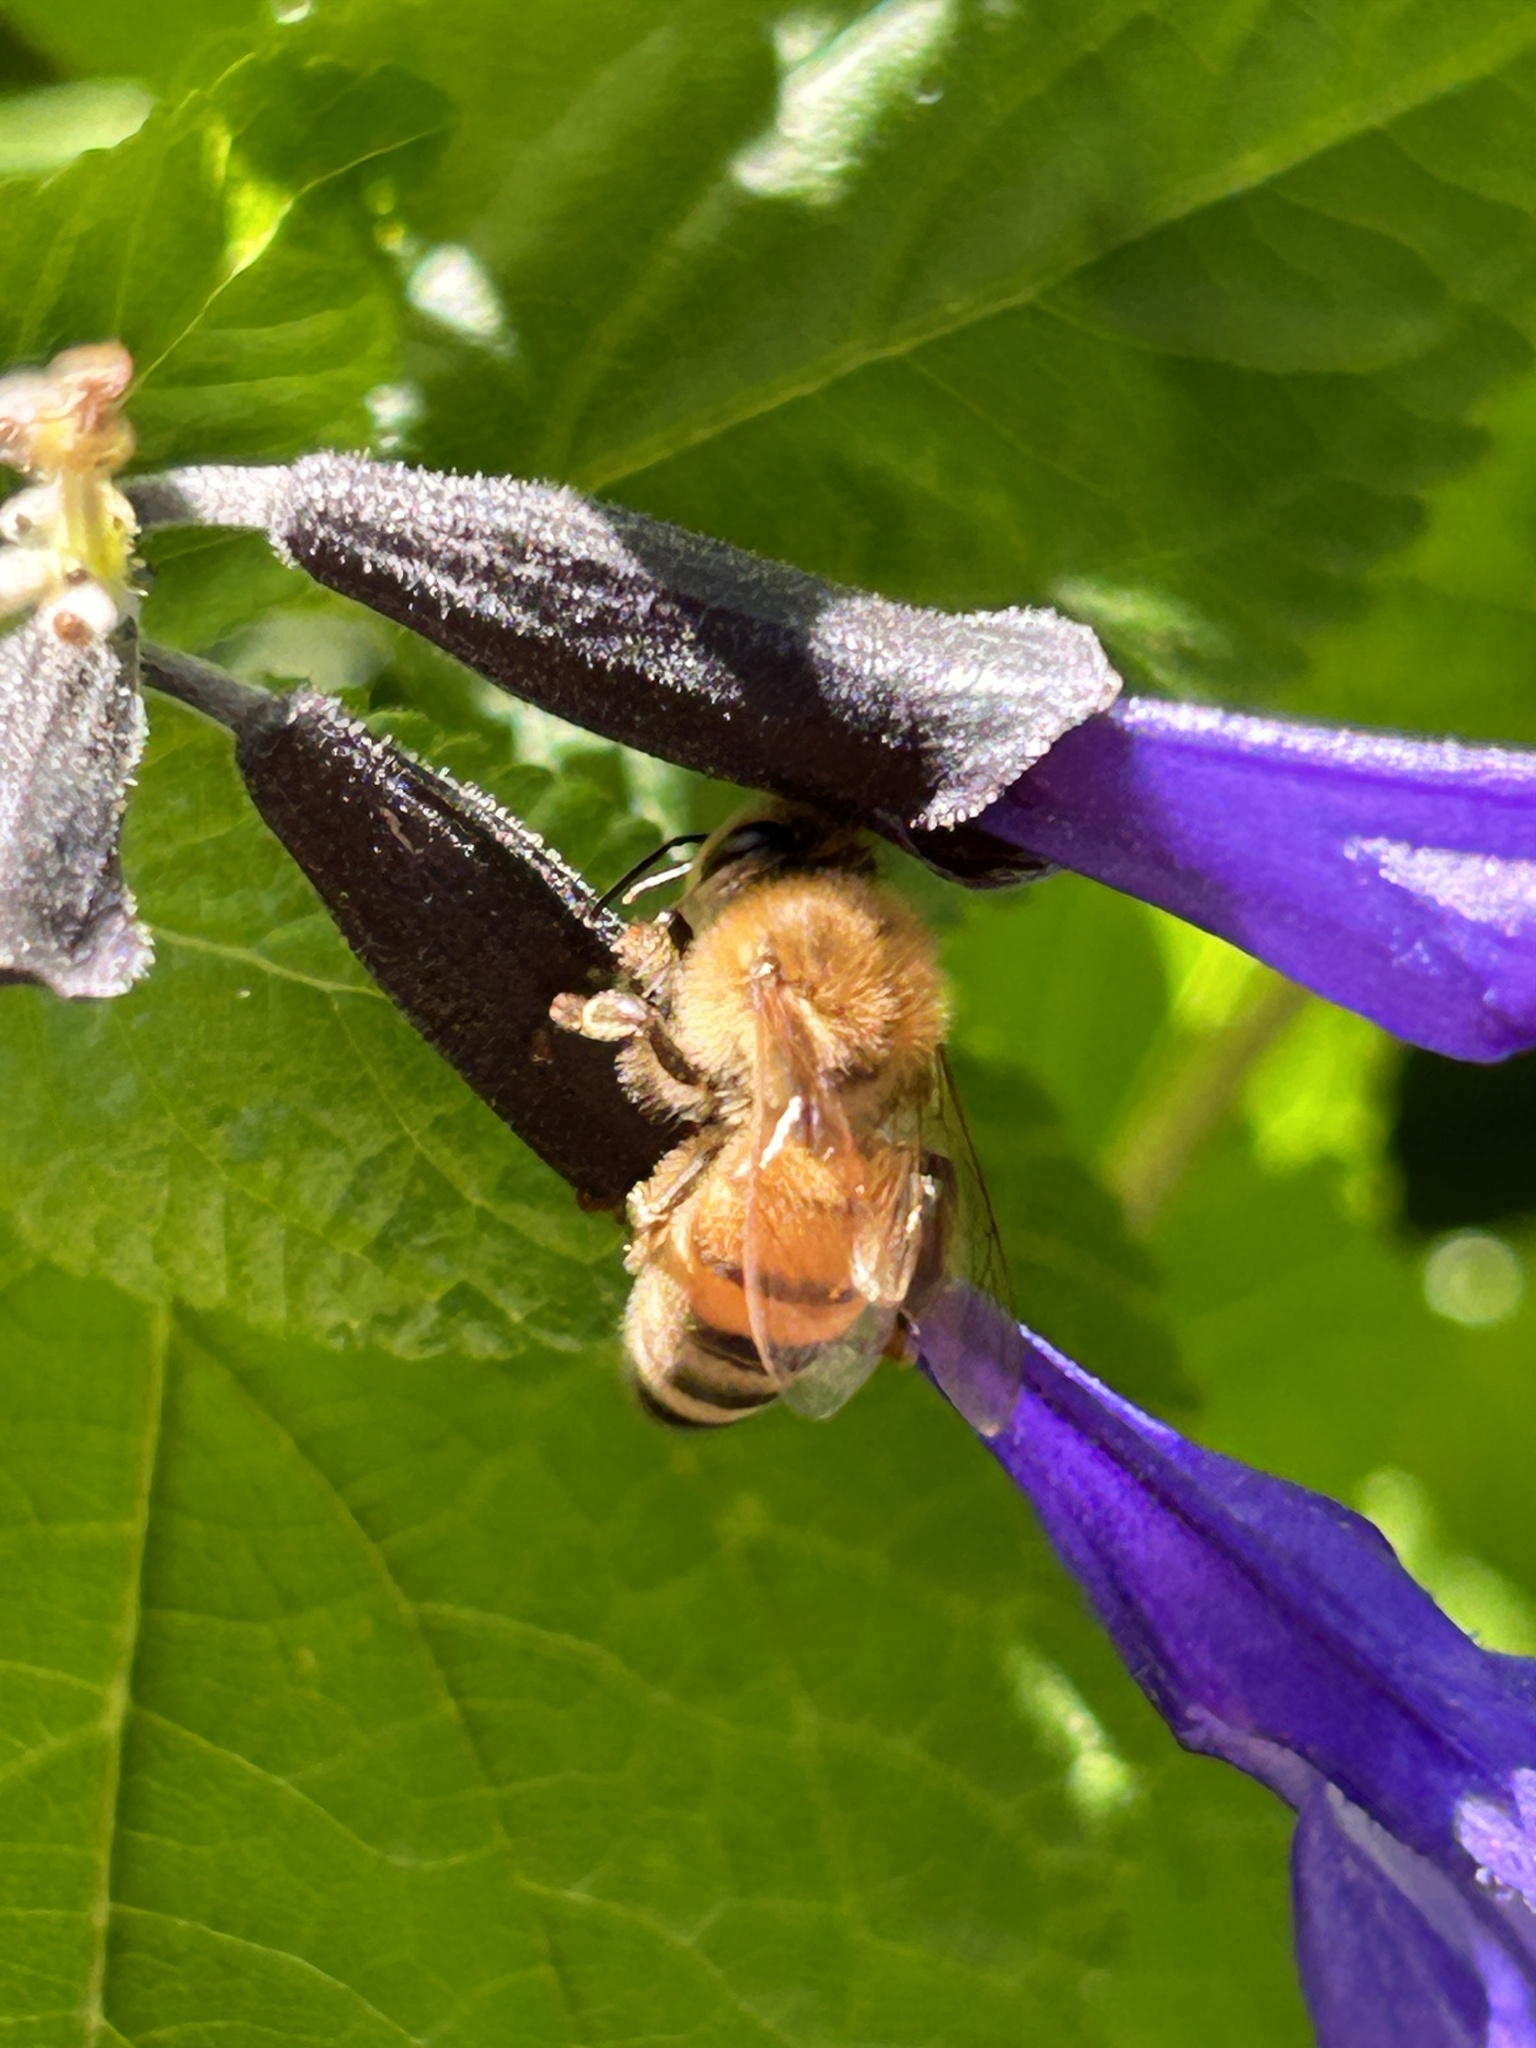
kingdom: Animalia
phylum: Arthropoda
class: Insecta
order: Hymenoptera
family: Apidae
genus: Apis
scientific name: Apis mellifera
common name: Honey bee
